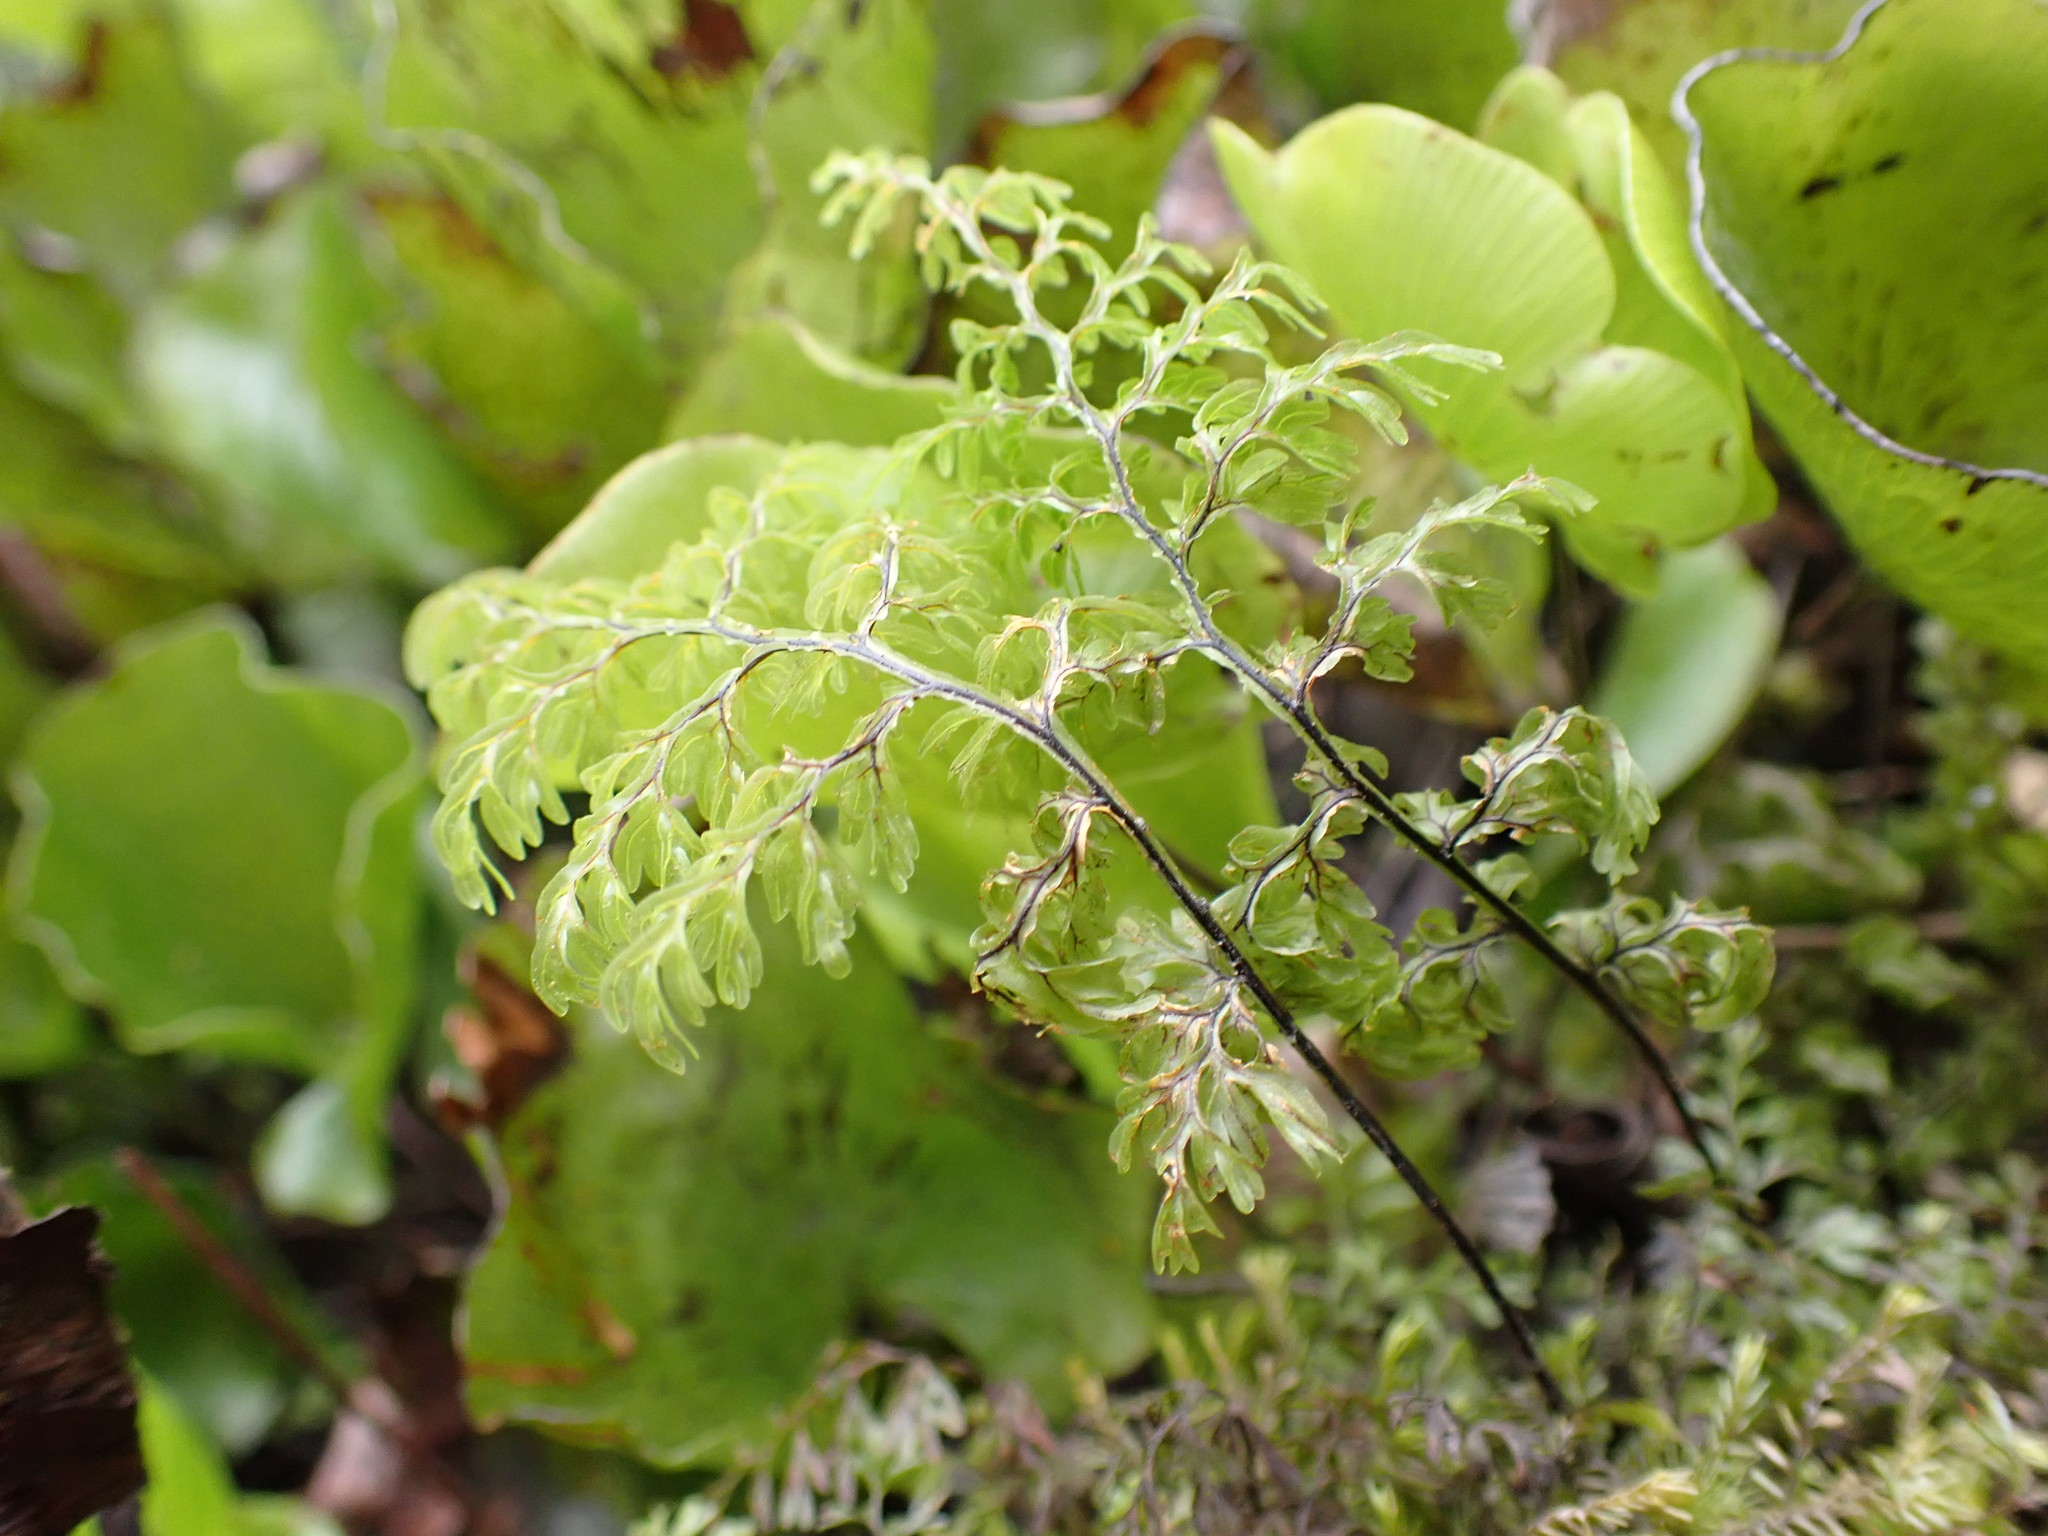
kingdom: Plantae
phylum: Tracheophyta
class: Polypodiopsida
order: Hymenophyllales
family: Hymenophyllaceae
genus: Hymenophyllum
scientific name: Hymenophyllum sanguinolentum
